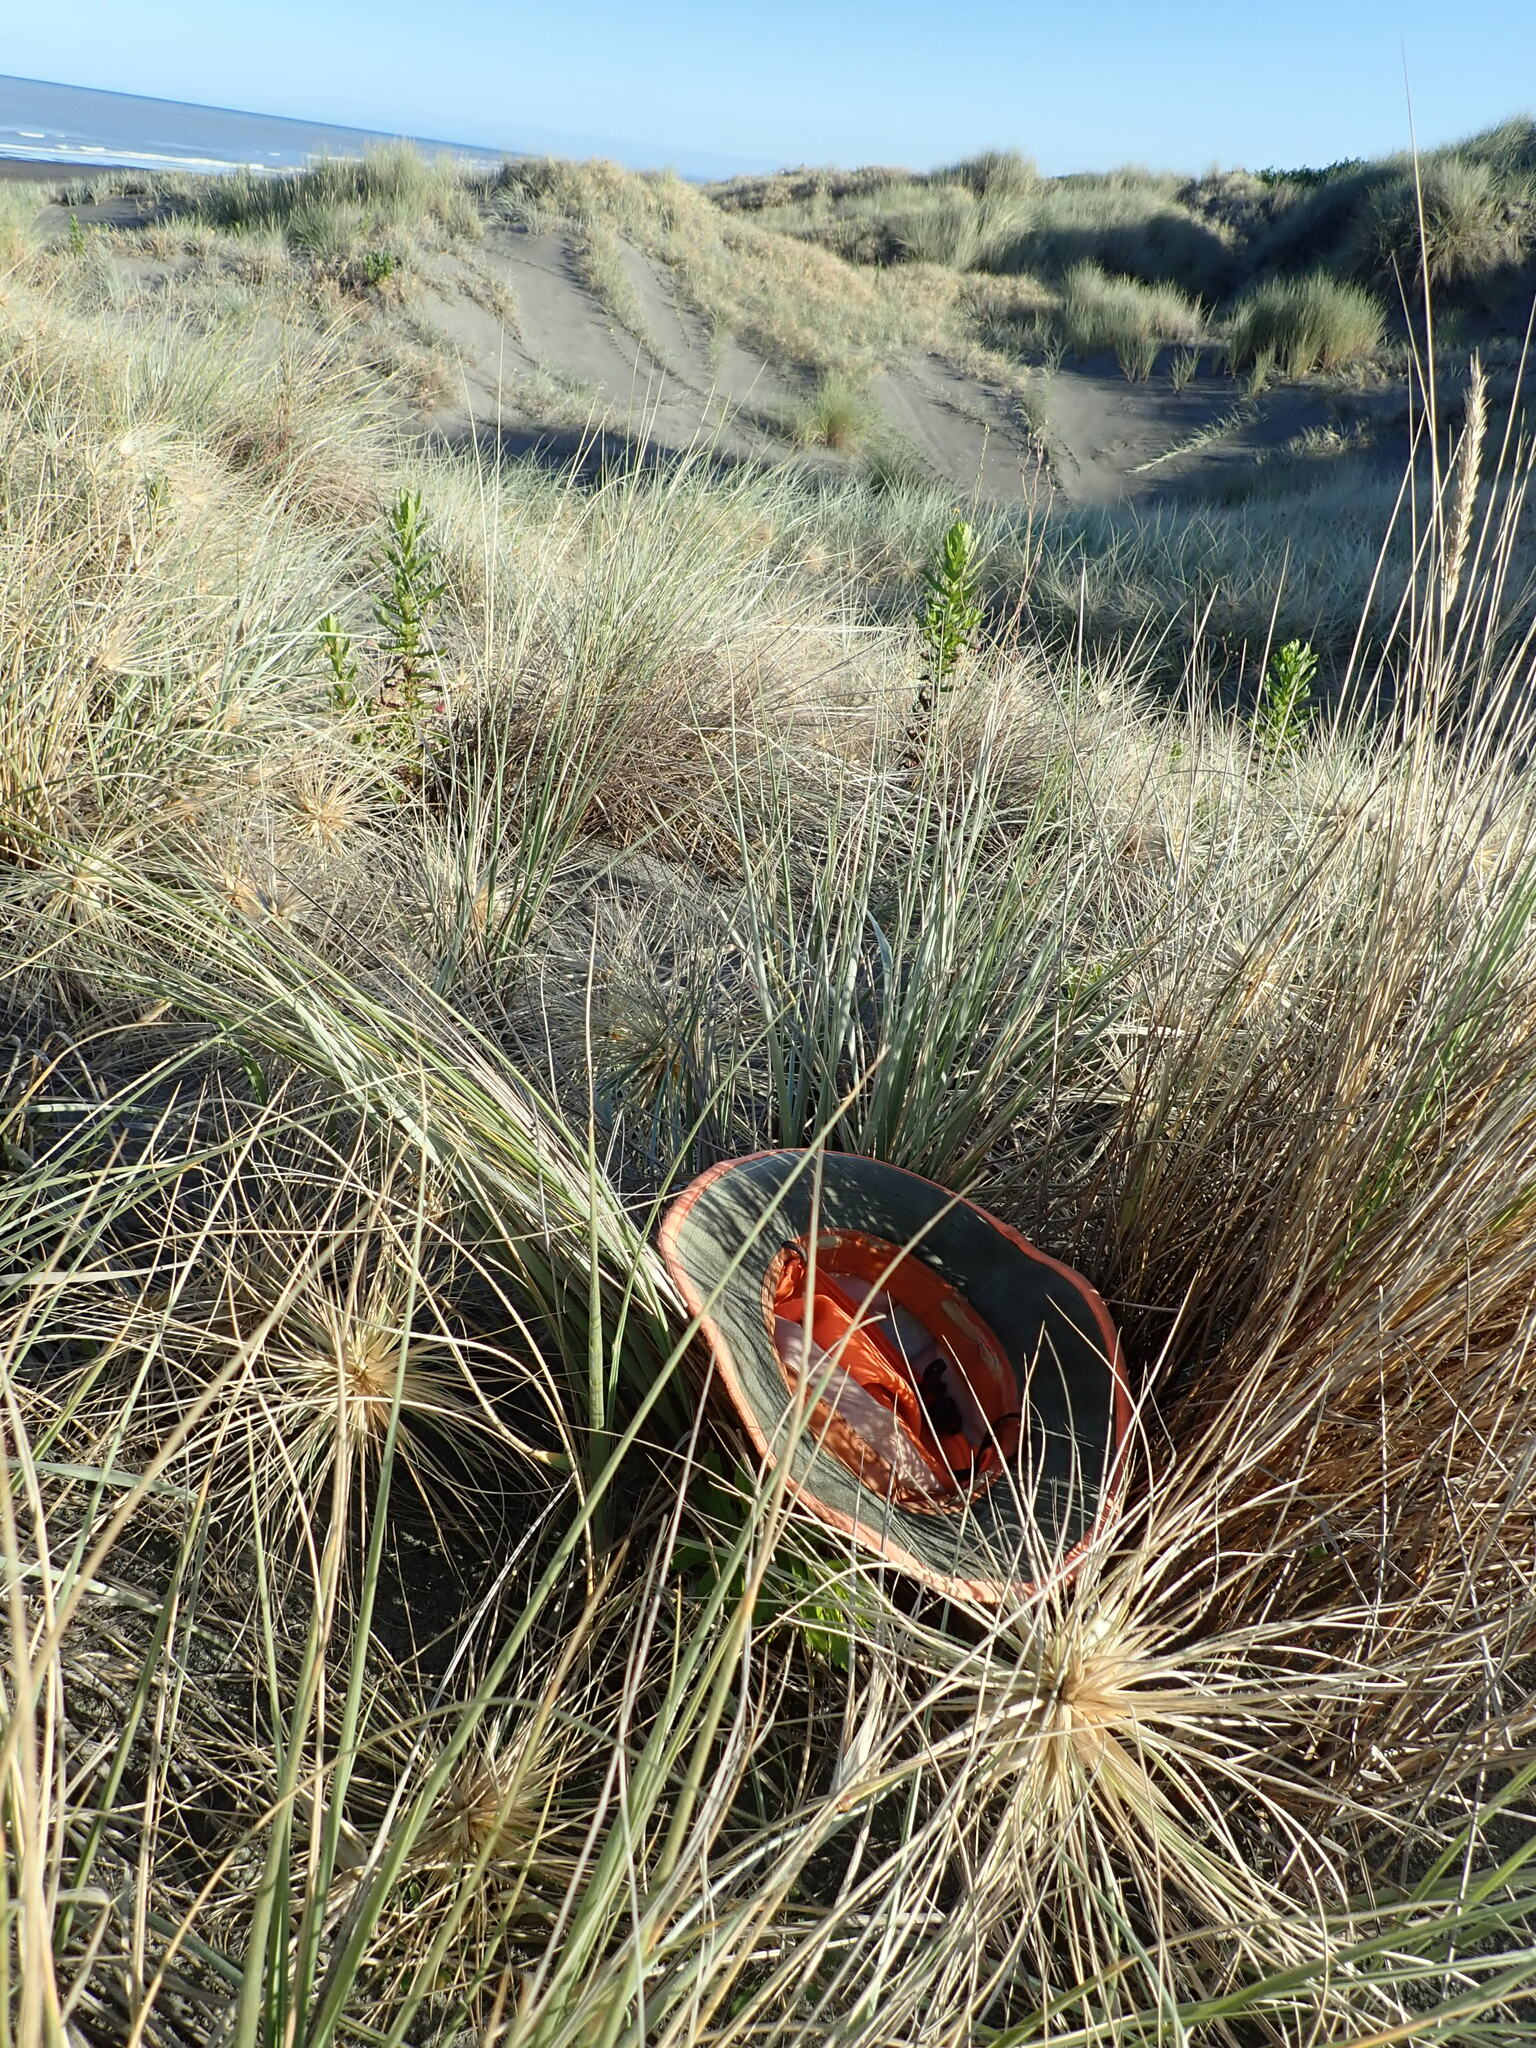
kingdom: Fungi
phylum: Basidiomycota
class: Agaricomycetes
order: Agaricales
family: Marasmiaceae
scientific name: Marasmiaceae
